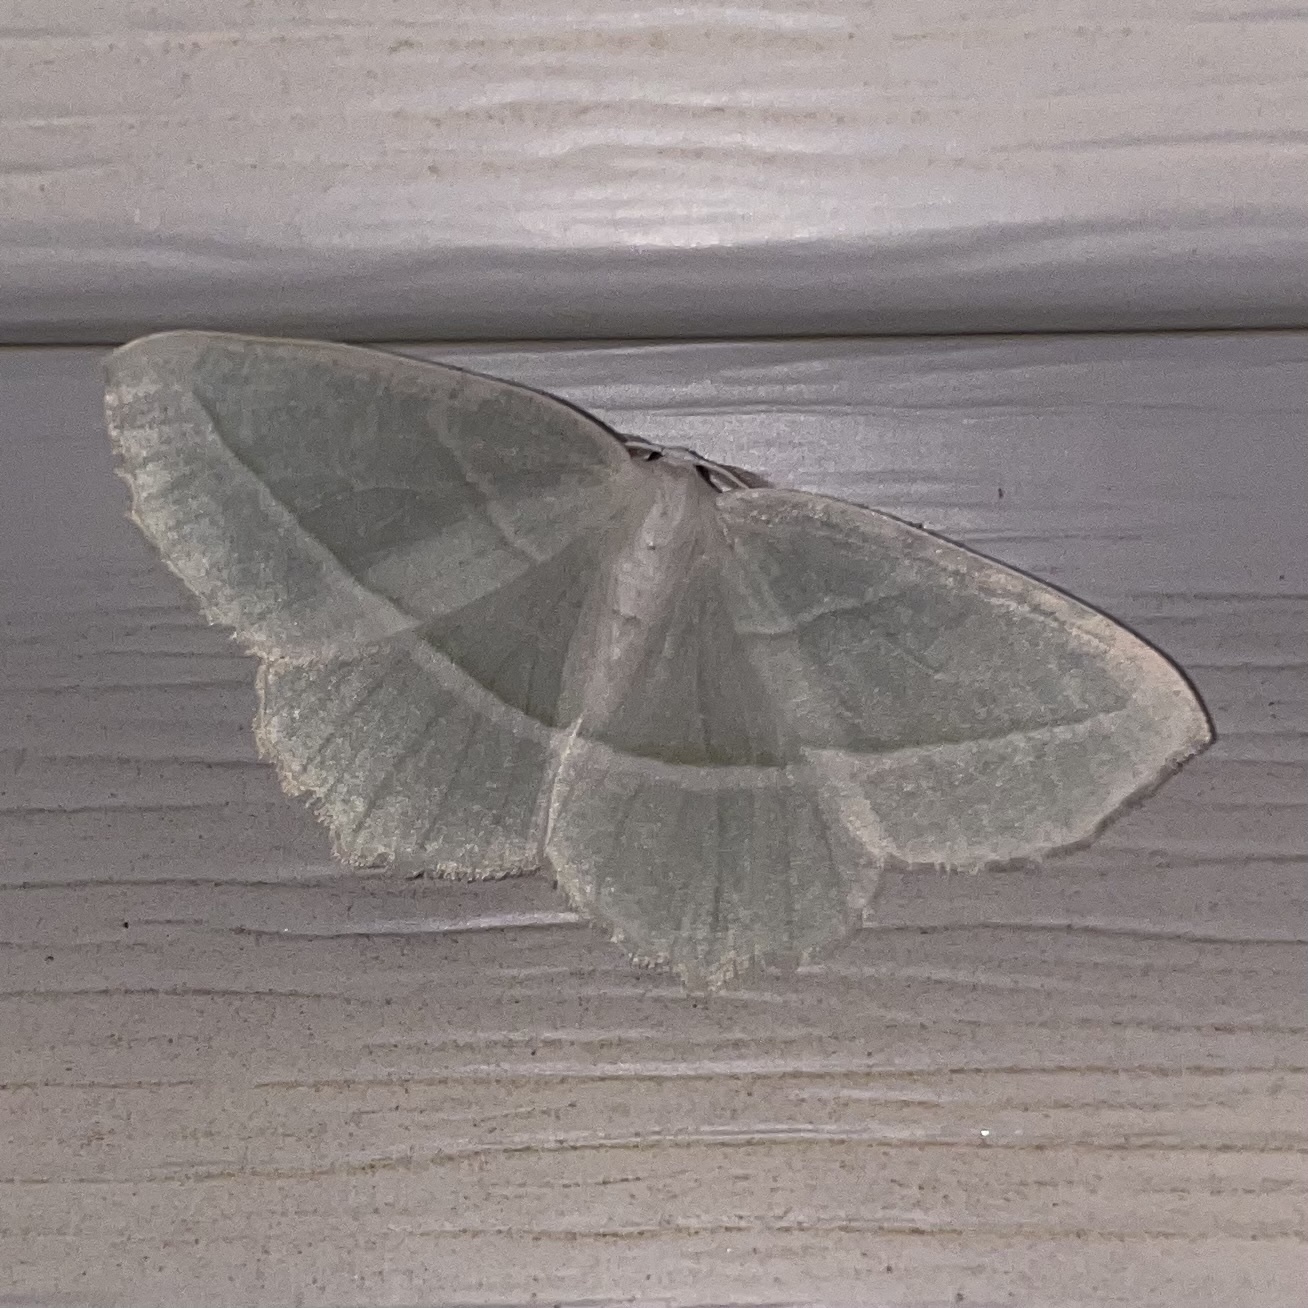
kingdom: Animalia
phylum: Arthropoda
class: Insecta
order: Lepidoptera
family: Geometridae
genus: Campaea
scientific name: Campaea perlata
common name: Fringed looper
